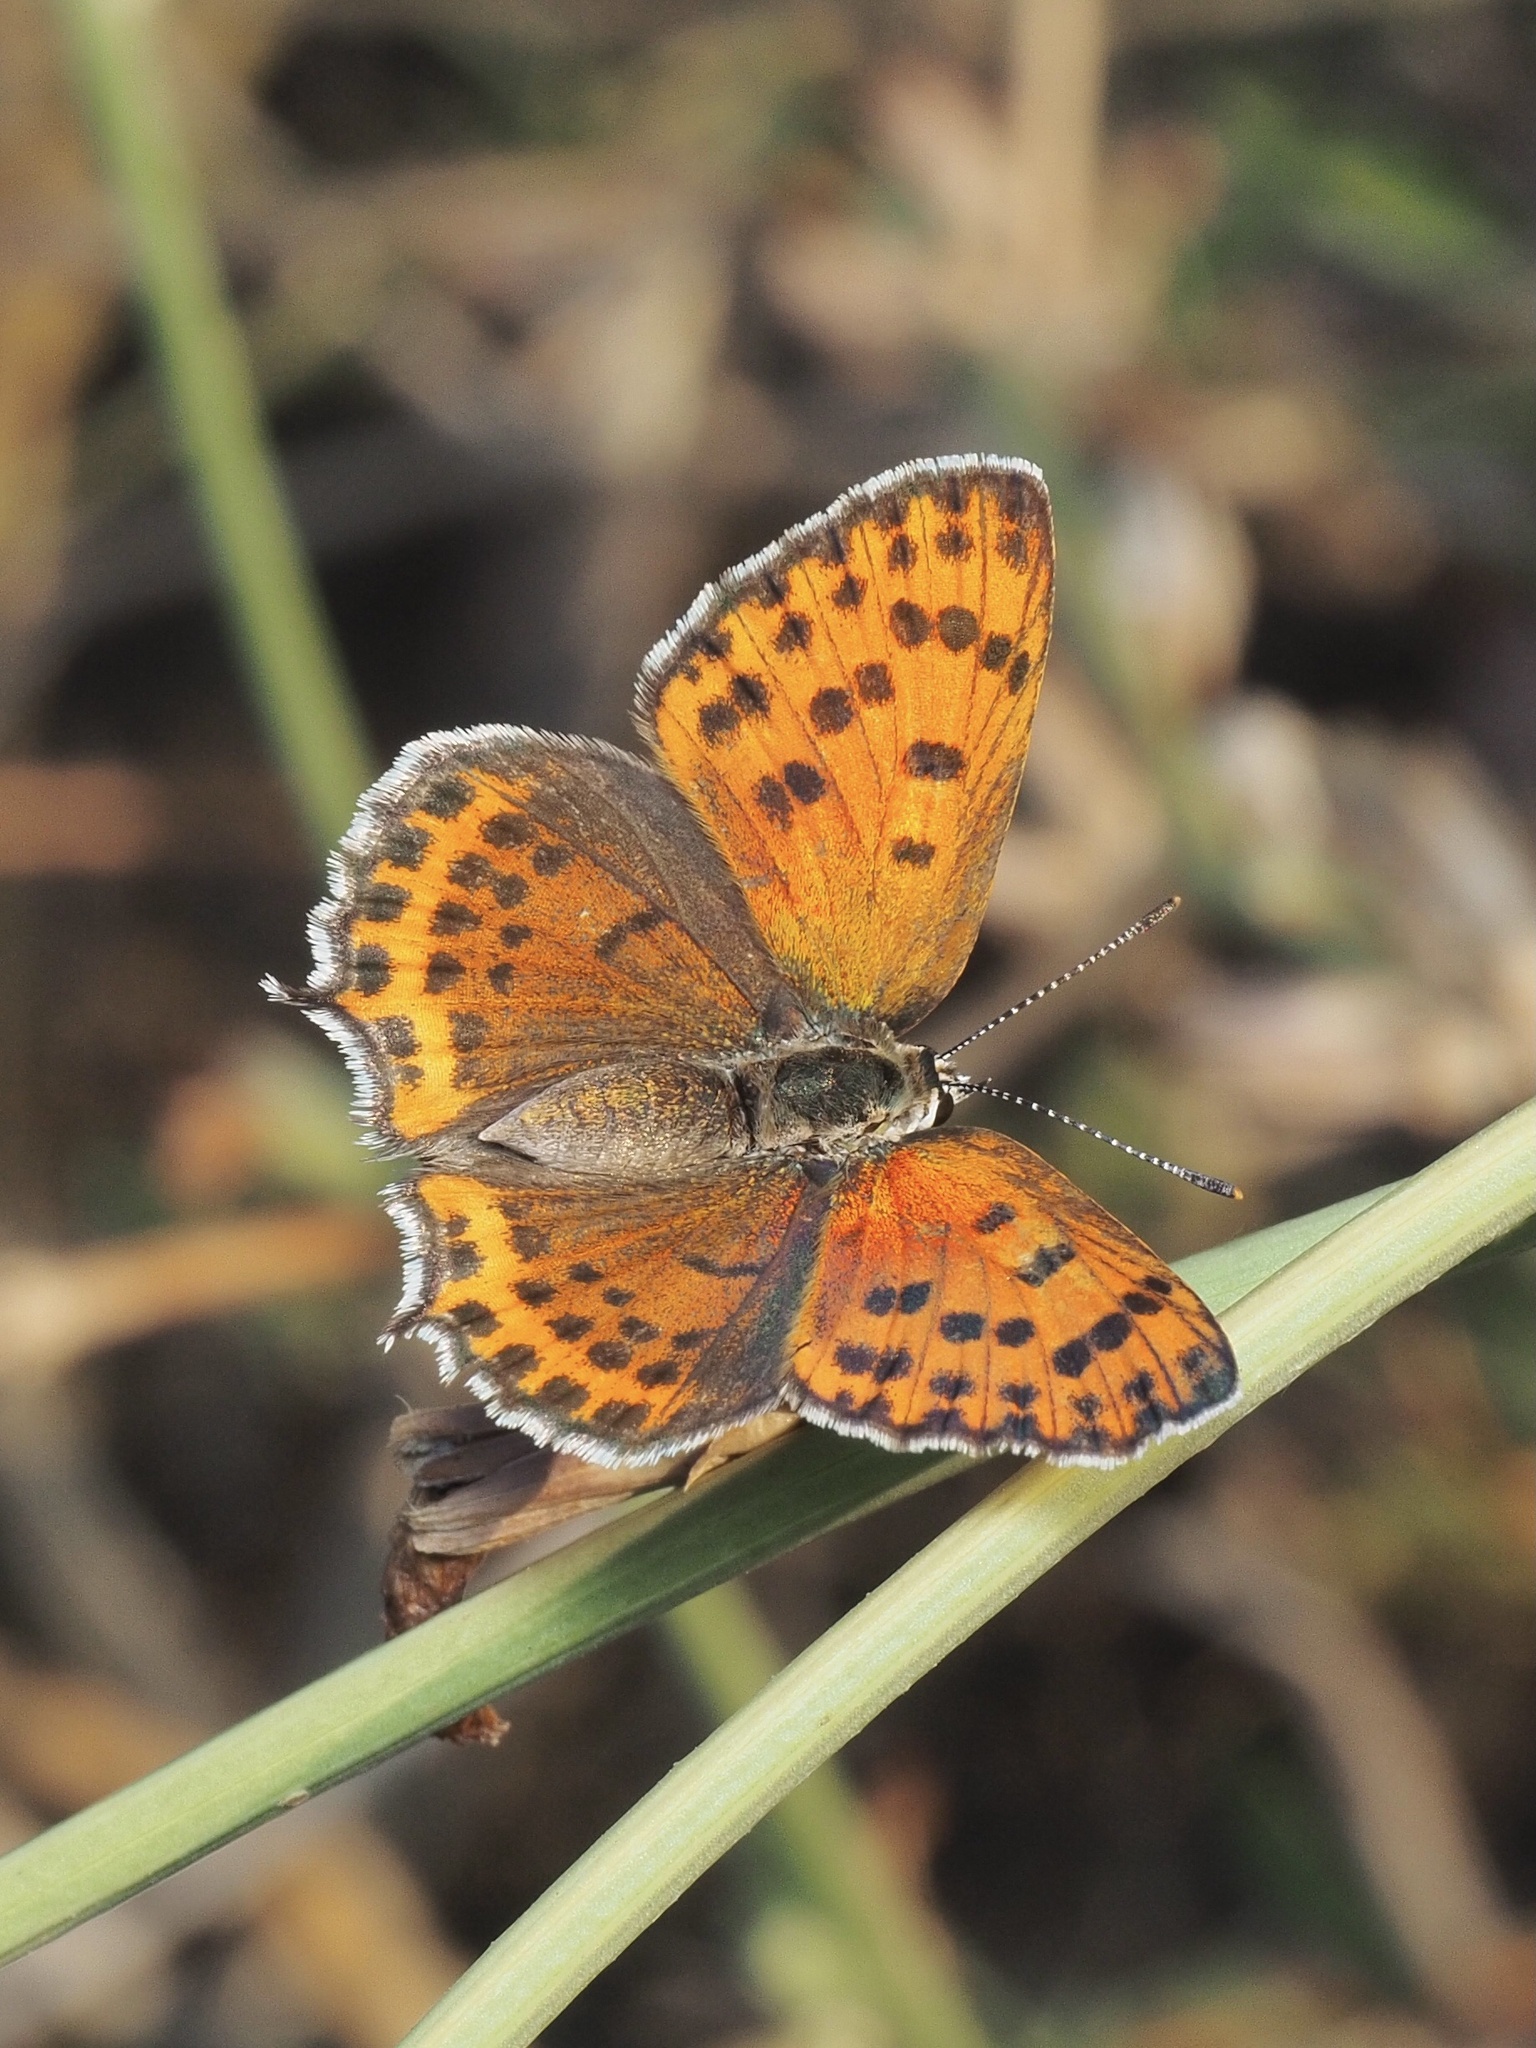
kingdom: Animalia
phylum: Arthropoda
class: Insecta
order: Lepidoptera
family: Lycaenidae
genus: Thersamonia
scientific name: Thersamonia thersamon
